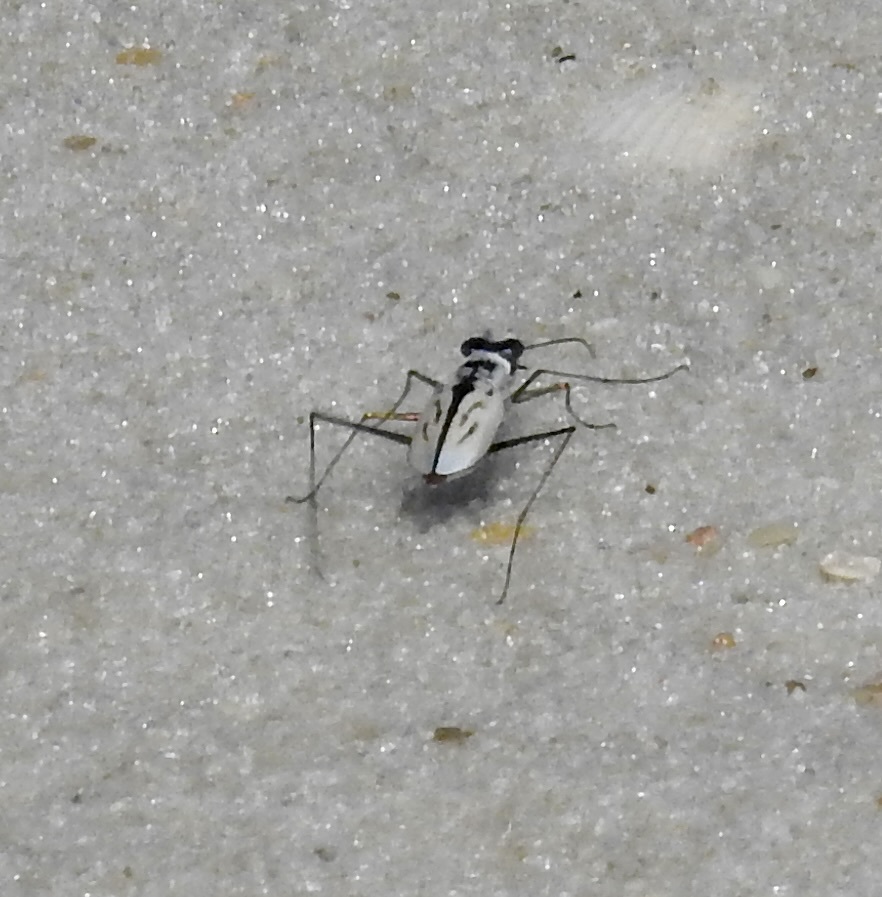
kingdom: Animalia
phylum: Arthropoda
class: Insecta
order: Coleoptera
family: Carabidae
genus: Habroscelimorpha
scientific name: Habroscelimorpha dorsalis
